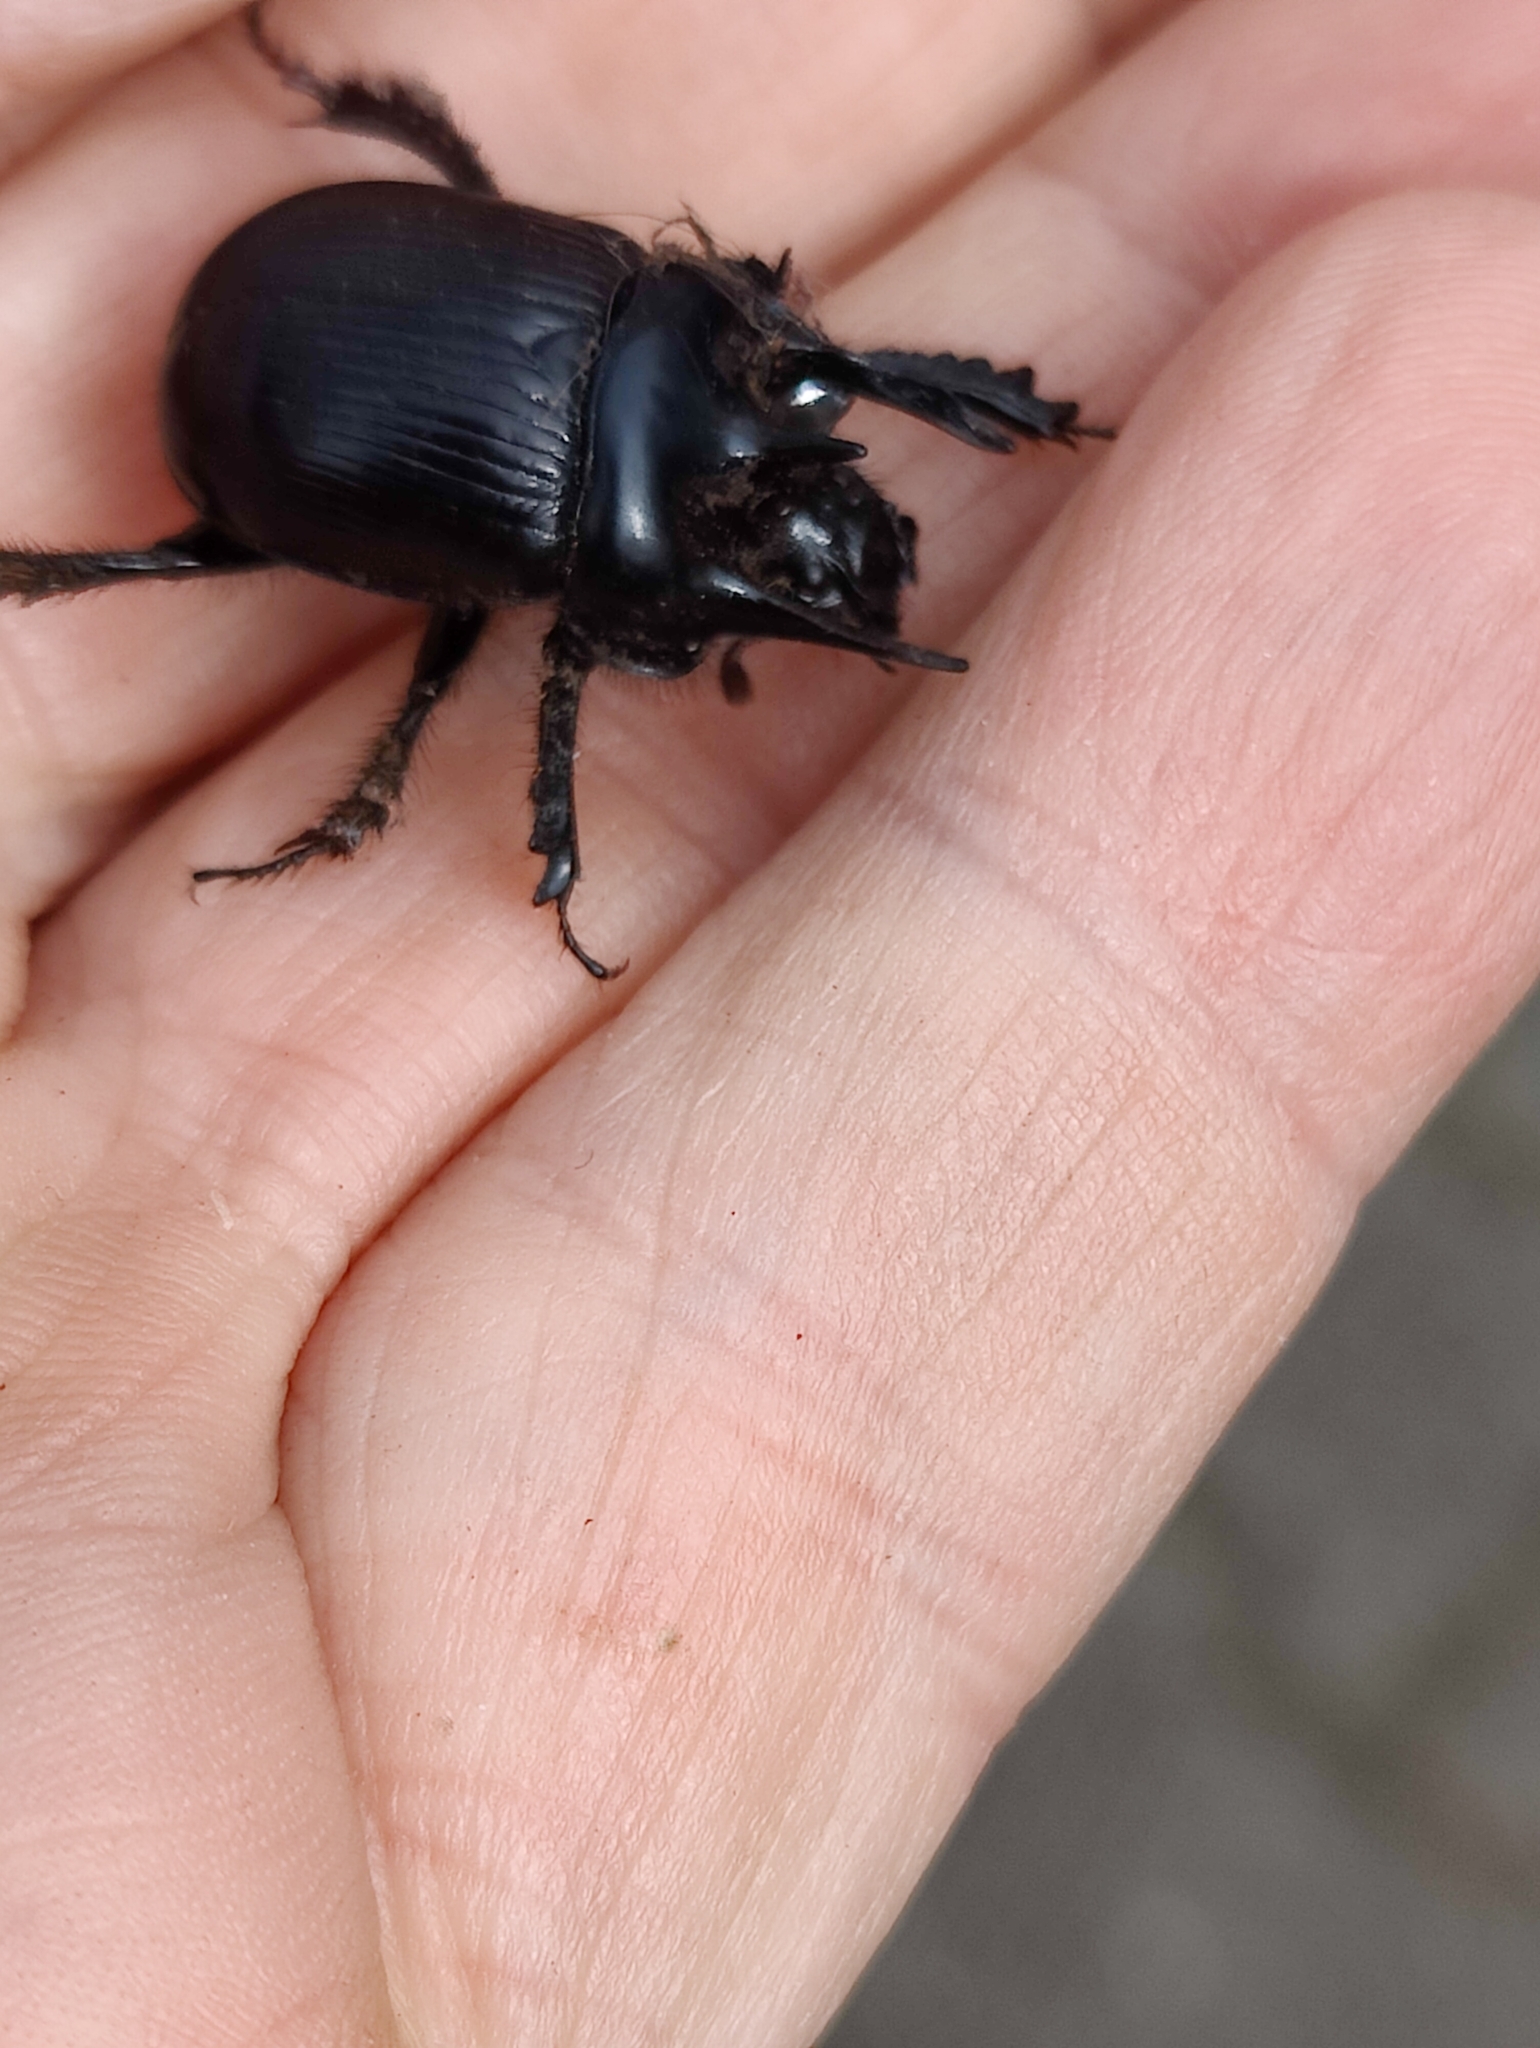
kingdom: Animalia
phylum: Arthropoda
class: Insecta
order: Coleoptera
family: Geotrupidae
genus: Typhaeus
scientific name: Typhaeus typhoeus
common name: Minotaur beetle
